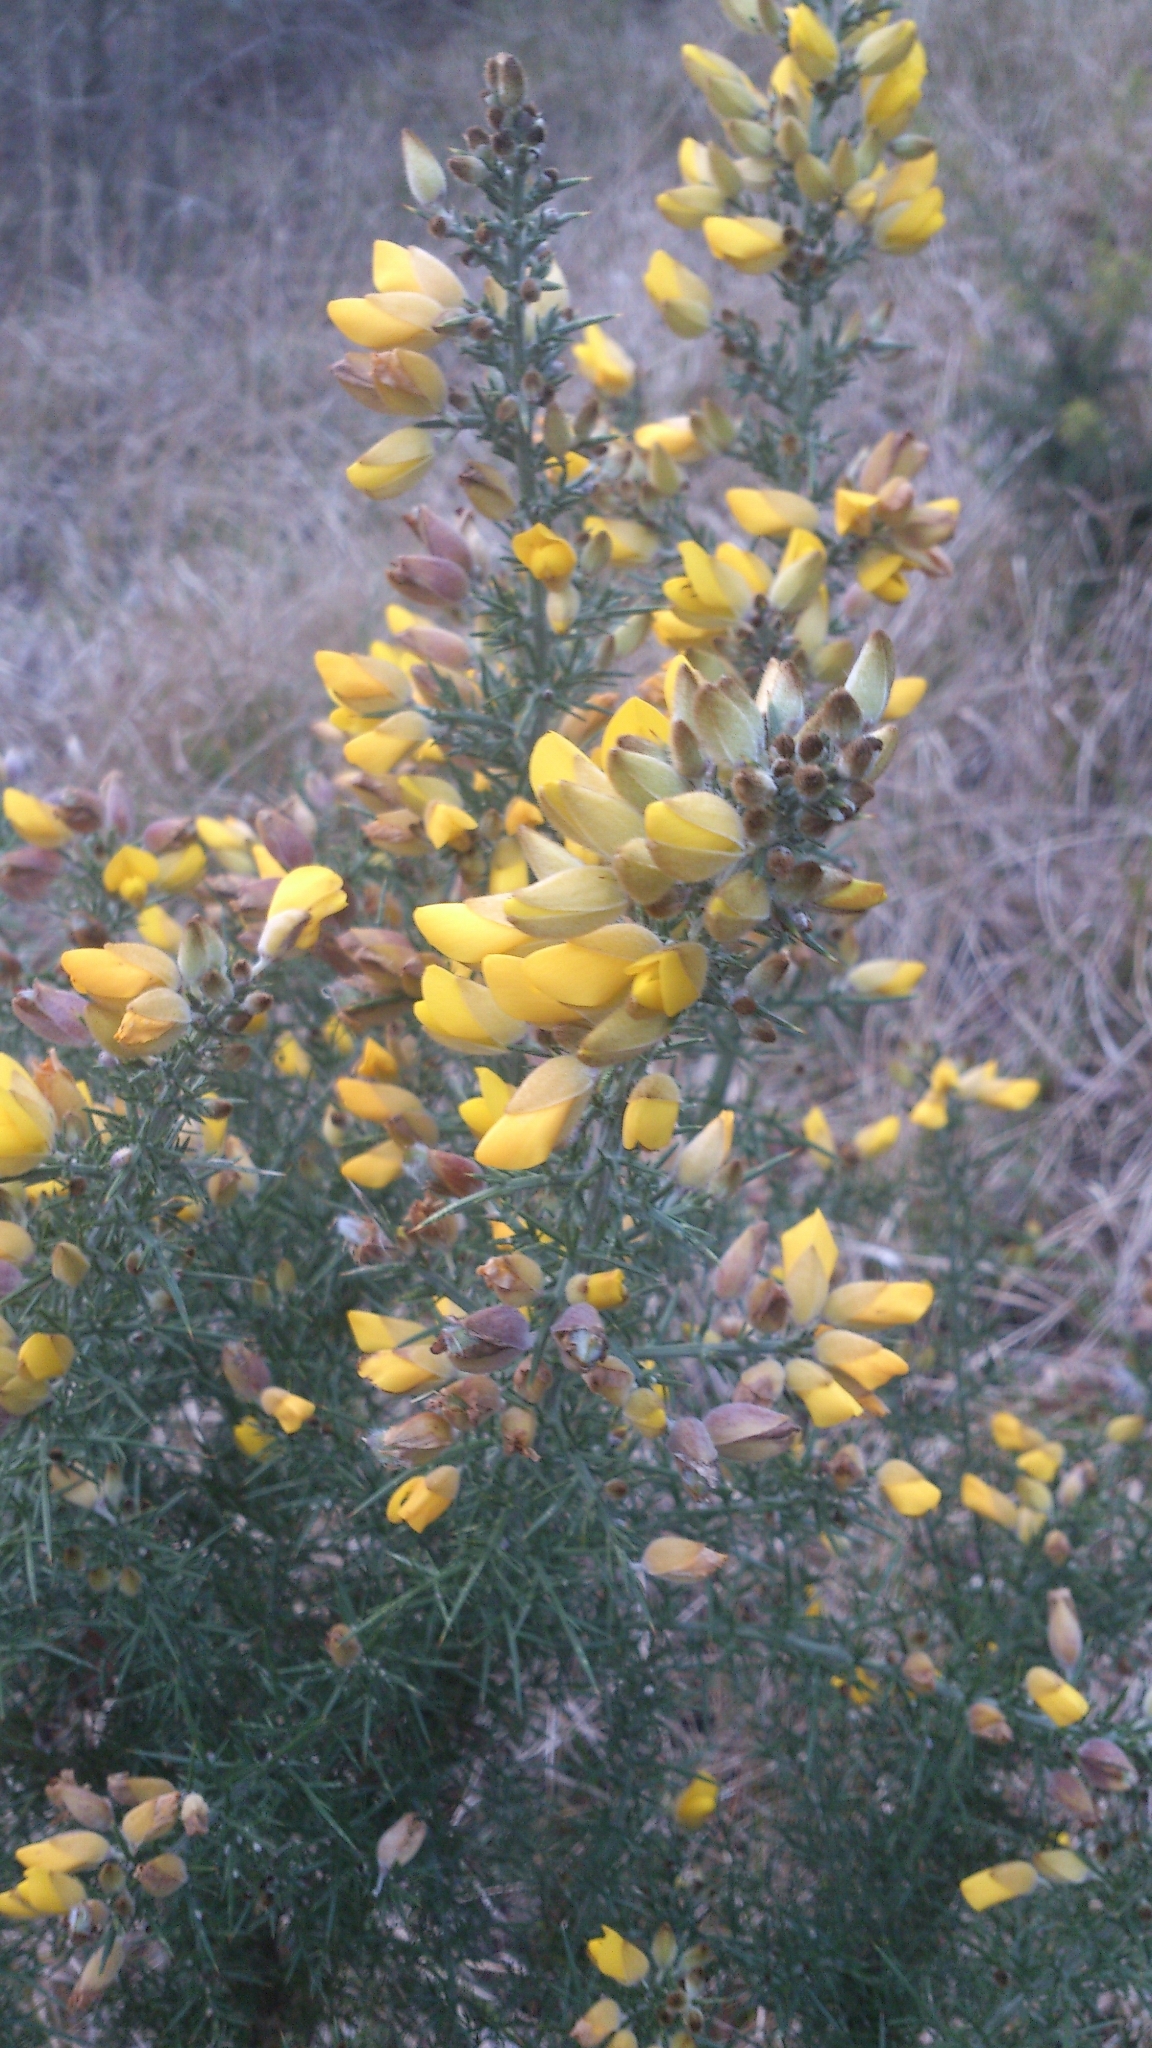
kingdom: Plantae
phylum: Tracheophyta
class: Magnoliopsida
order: Fabales
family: Fabaceae
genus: Ulex
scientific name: Ulex europaeus
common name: Common gorse
